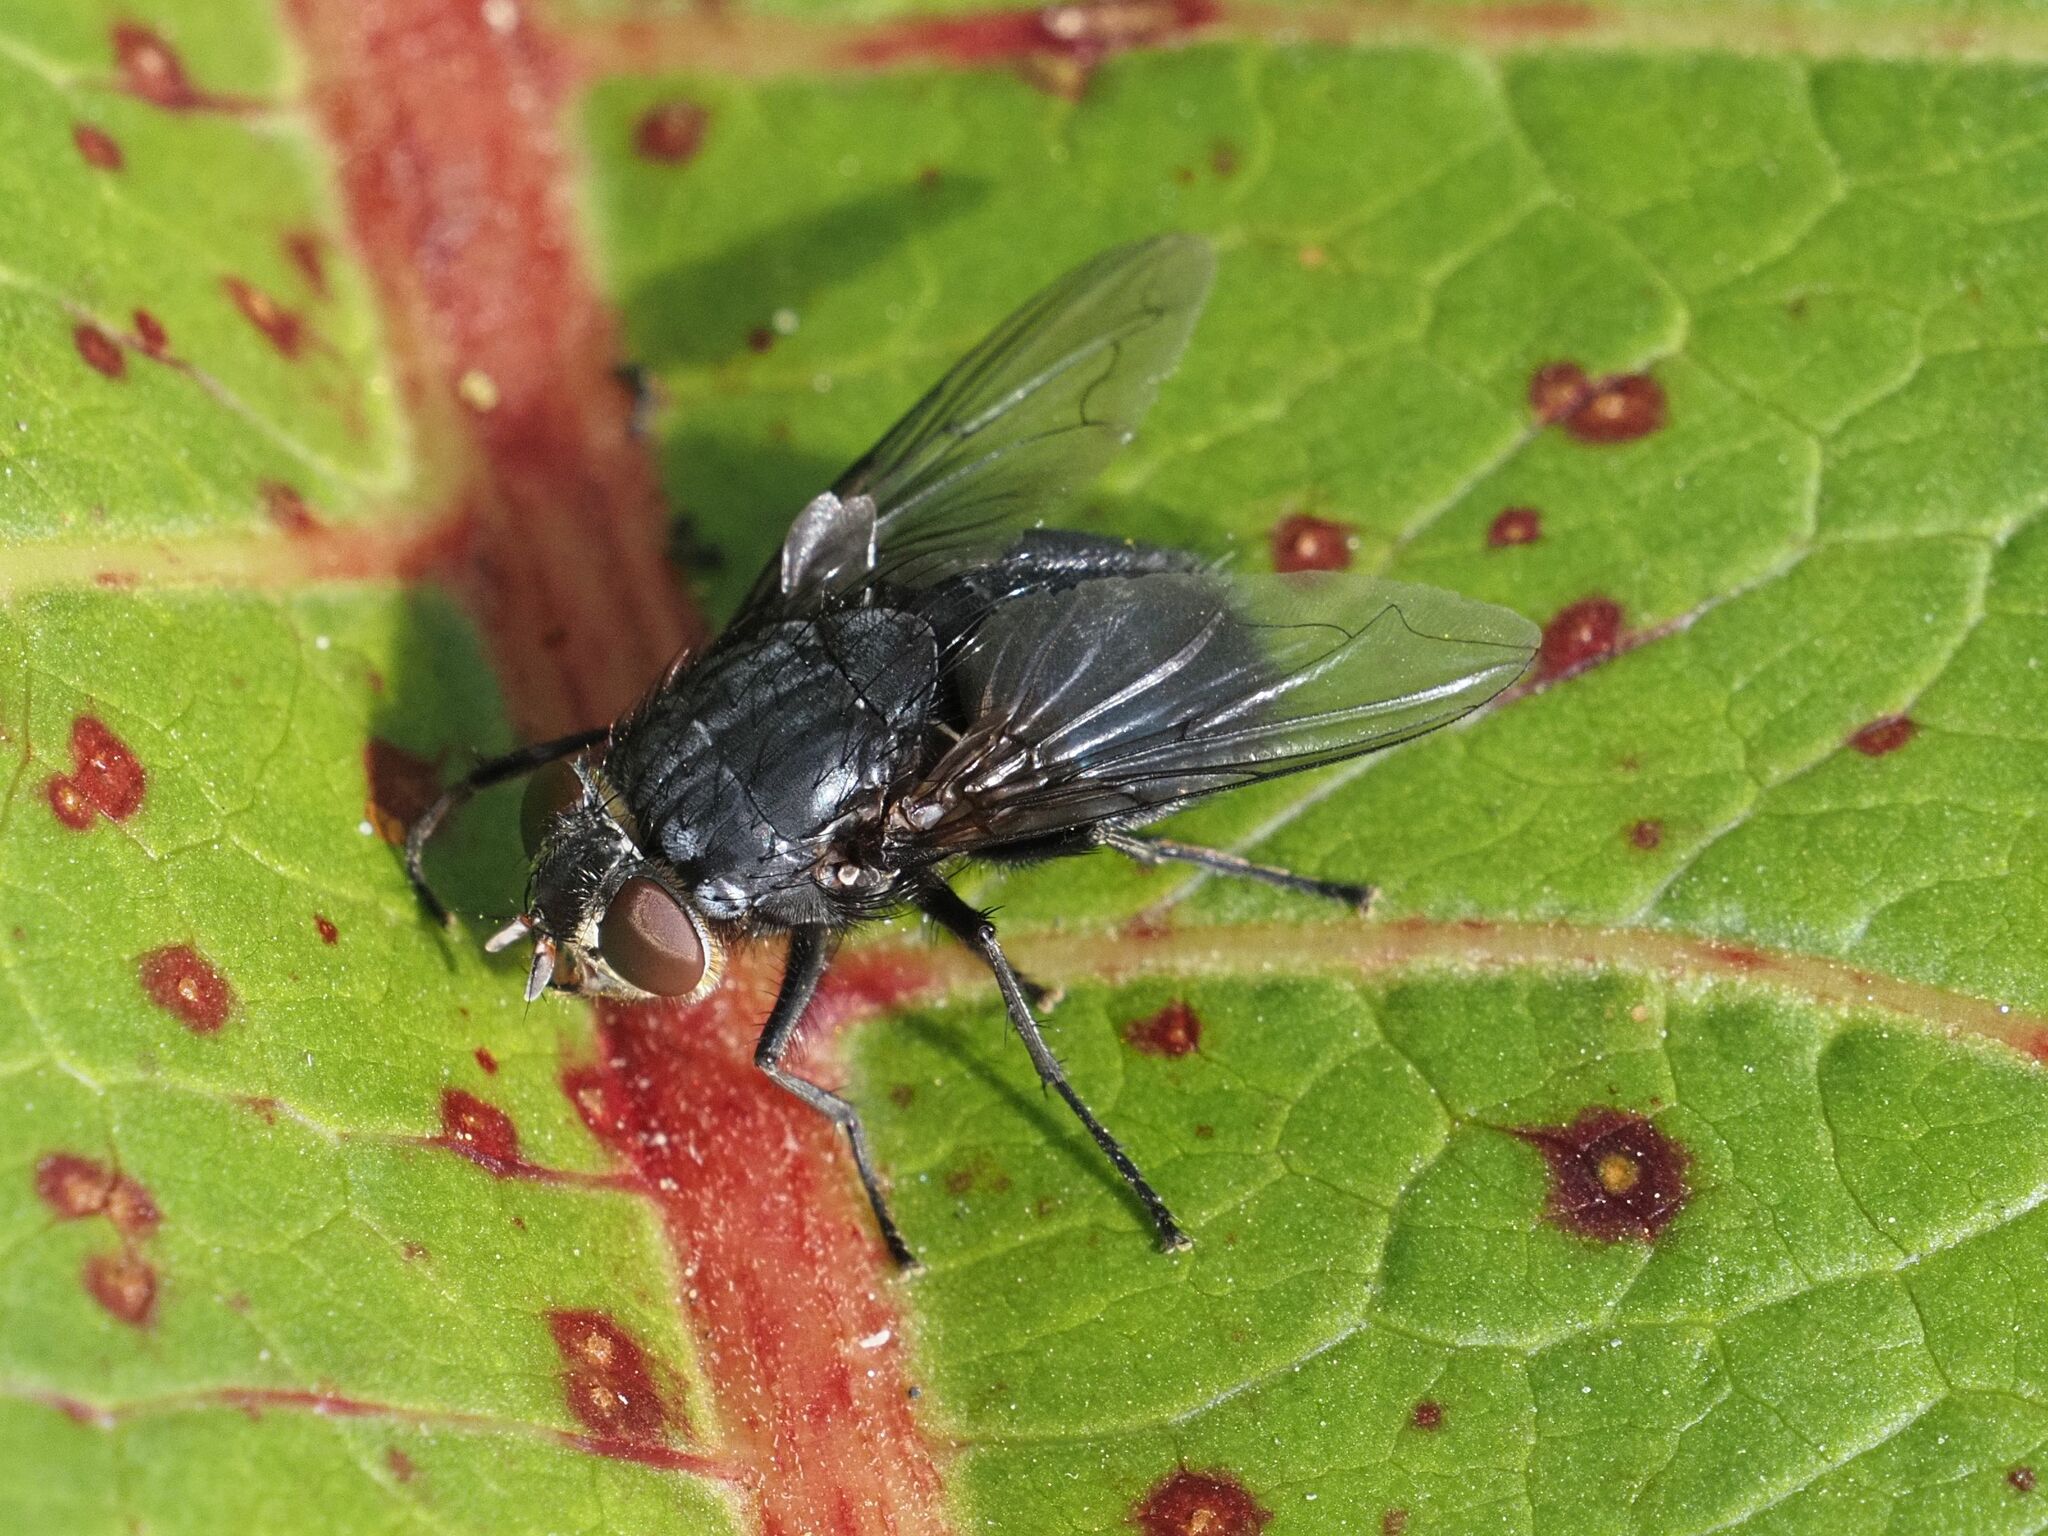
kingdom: Animalia
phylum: Arthropoda
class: Insecta
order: Diptera
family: Calliphoridae
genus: Calliphora
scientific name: Calliphora vicina
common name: Common blow flie
